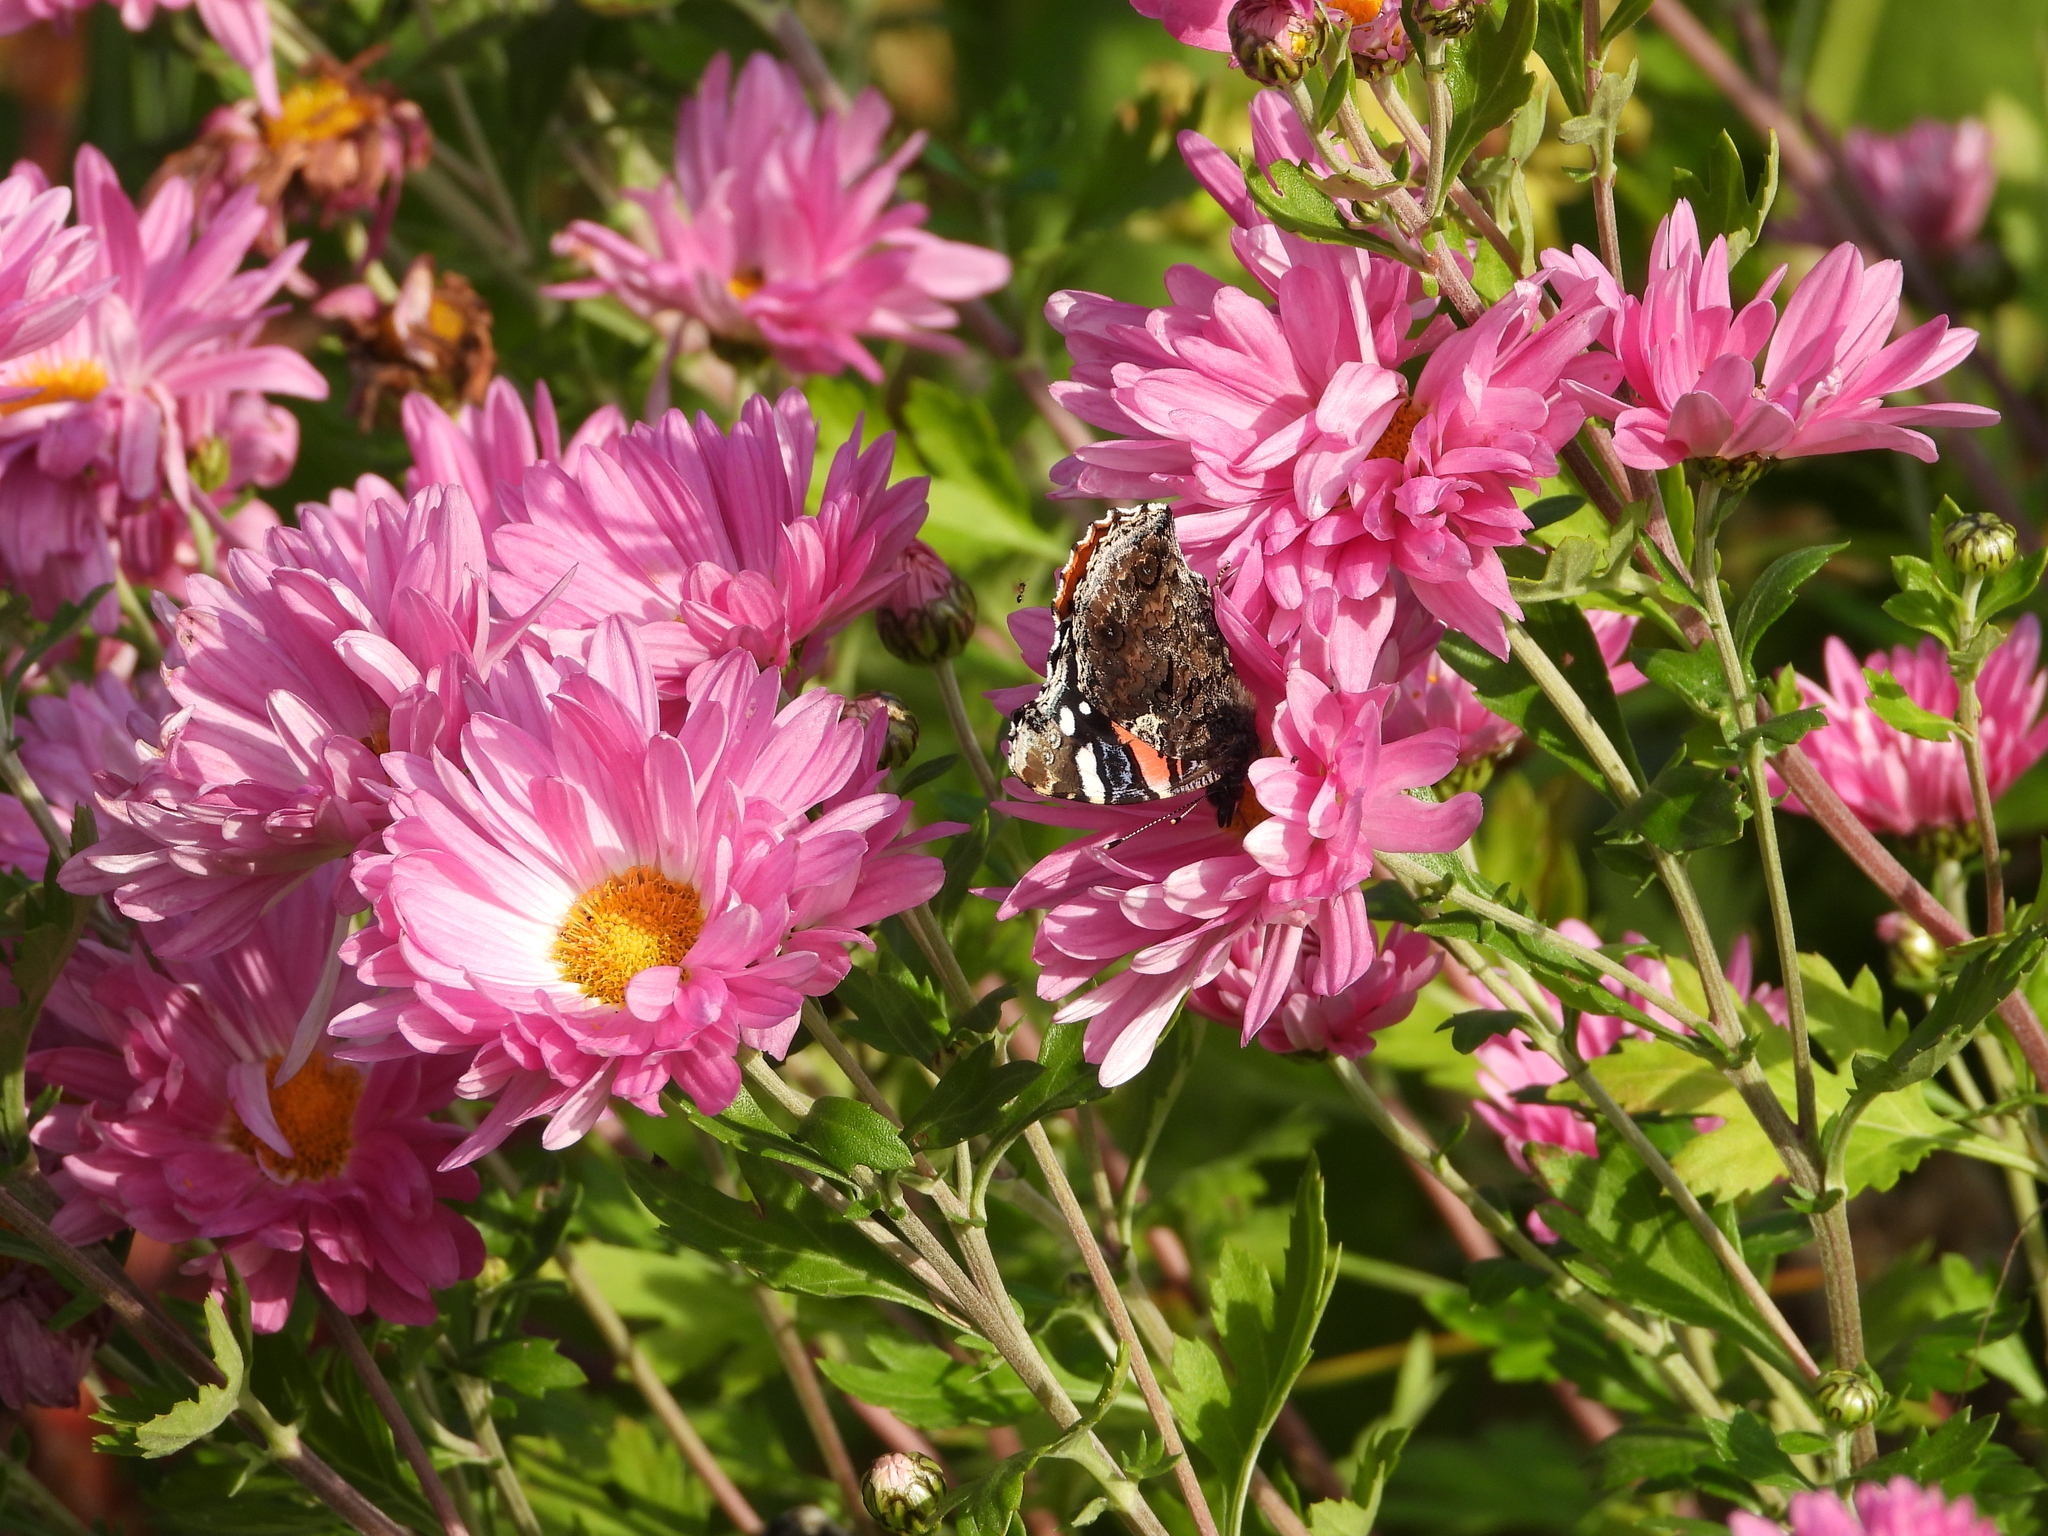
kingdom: Animalia
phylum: Arthropoda
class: Insecta
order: Lepidoptera
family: Nymphalidae
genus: Vanessa
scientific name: Vanessa atalanta
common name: Red admiral
